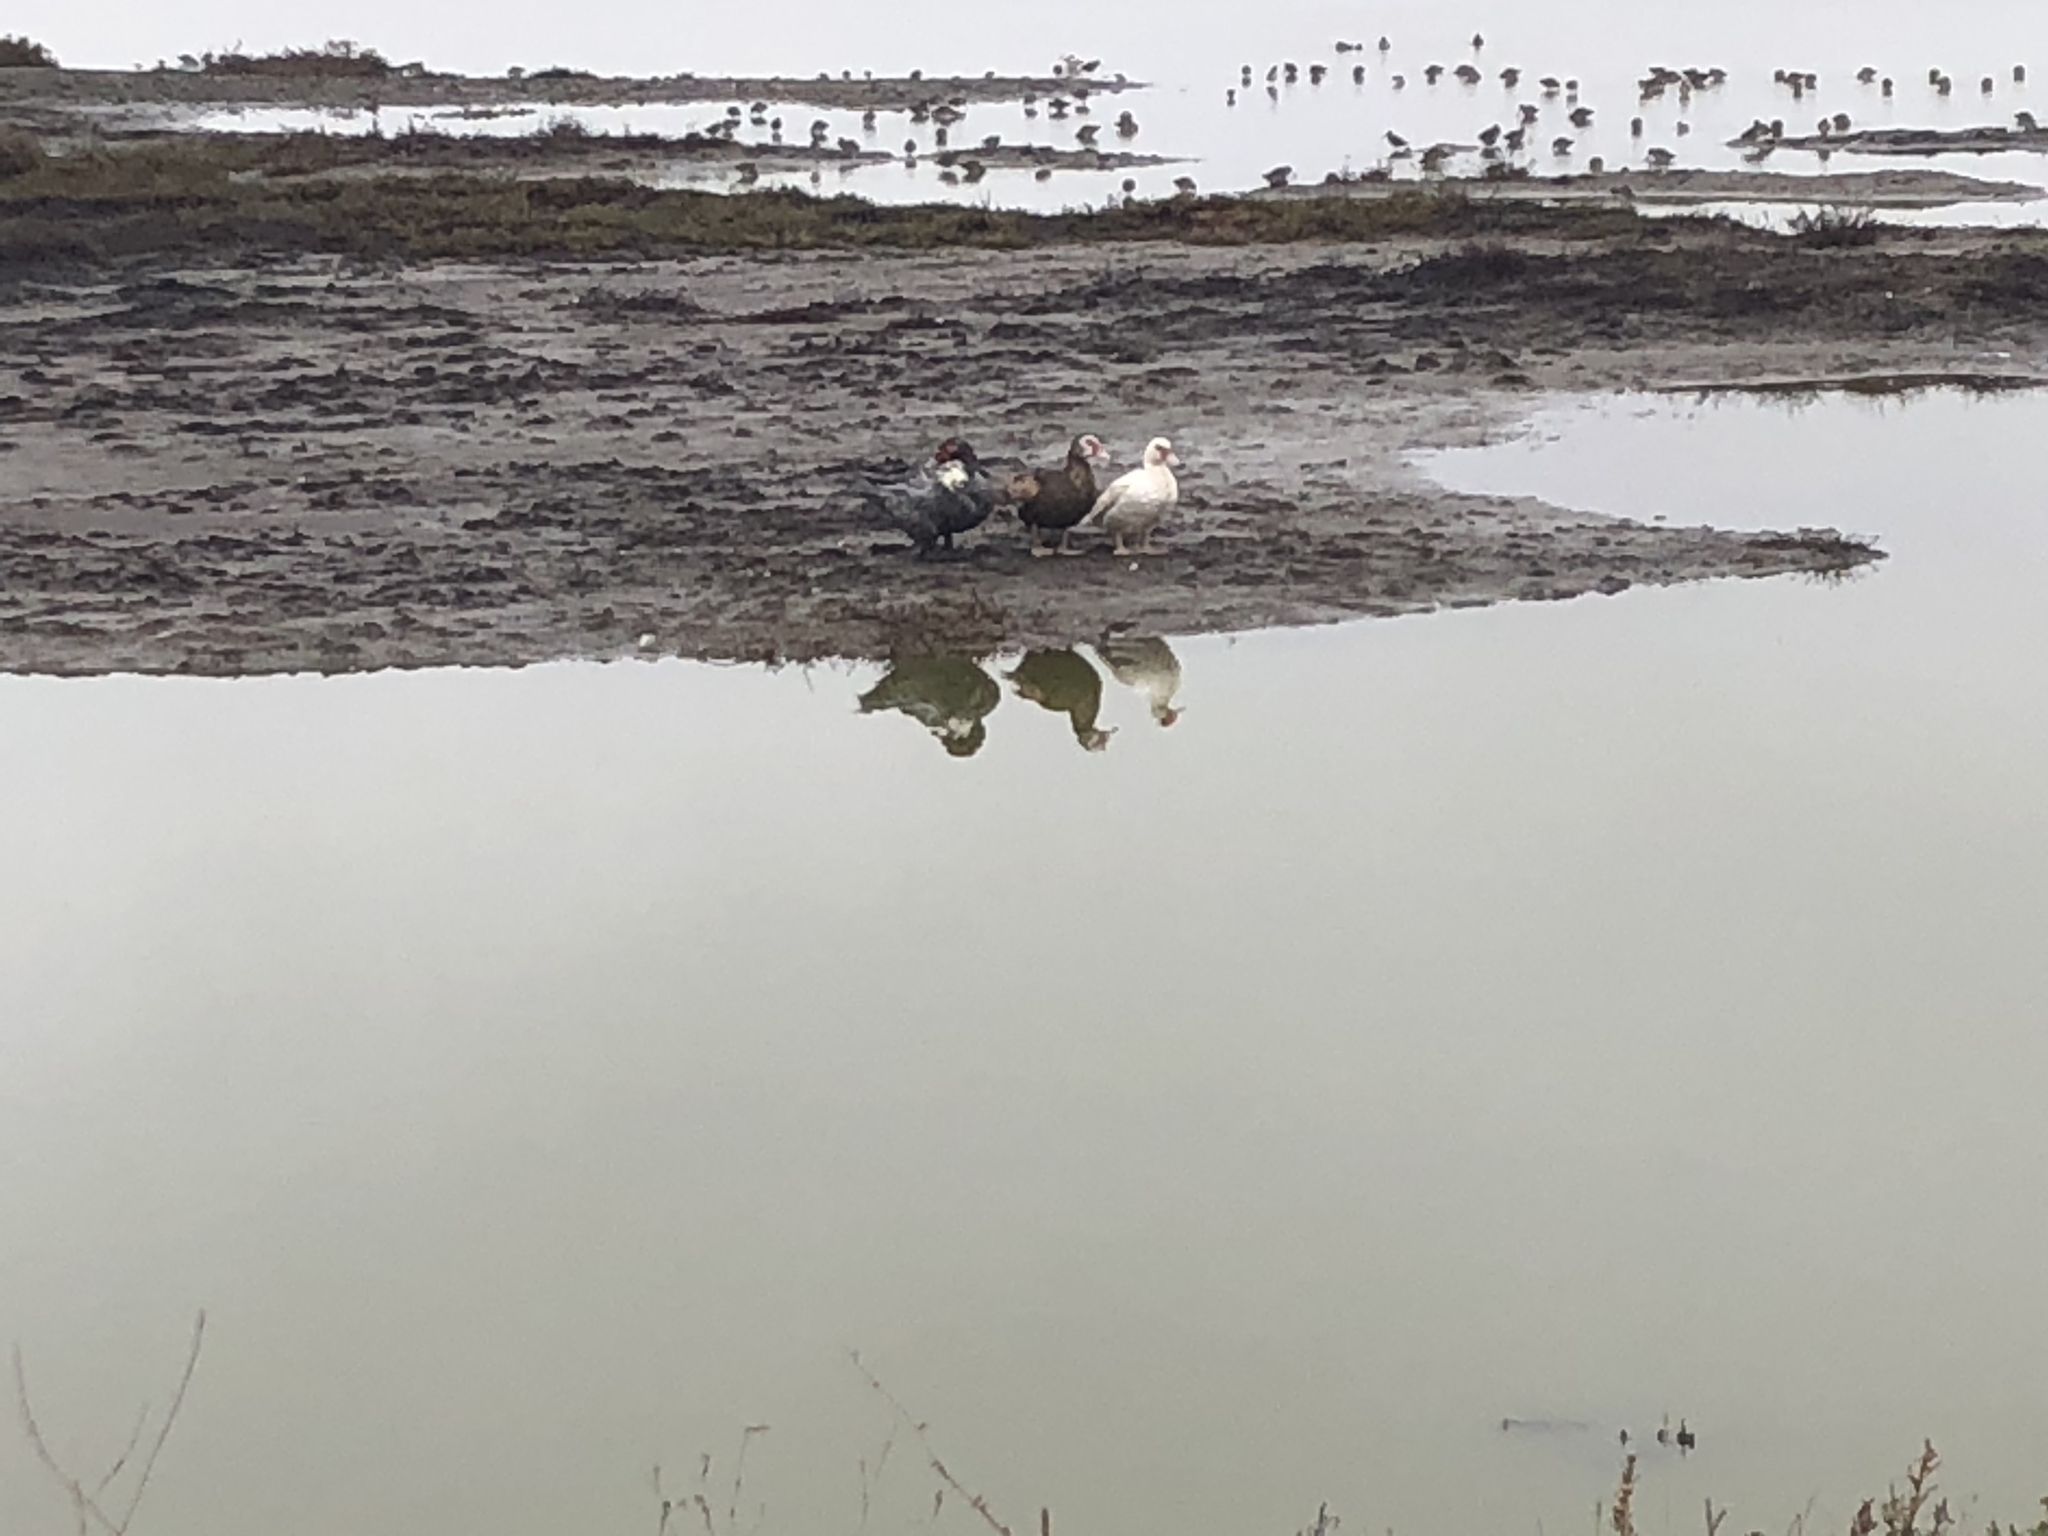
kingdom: Animalia
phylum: Chordata
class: Aves
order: Anseriformes
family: Anatidae
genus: Cairina
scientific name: Cairina moschata
